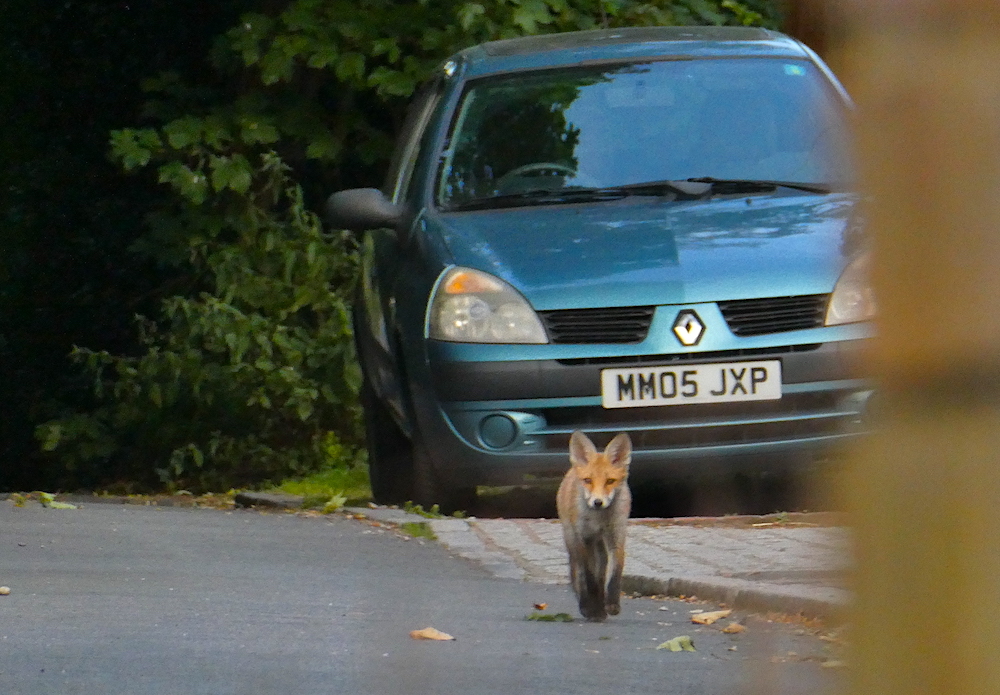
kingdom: Animalia
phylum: Chordata
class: Mammalia
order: Carnivora
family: Canidae
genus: Vulpes
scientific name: Vulpes vulpes
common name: Red fox
